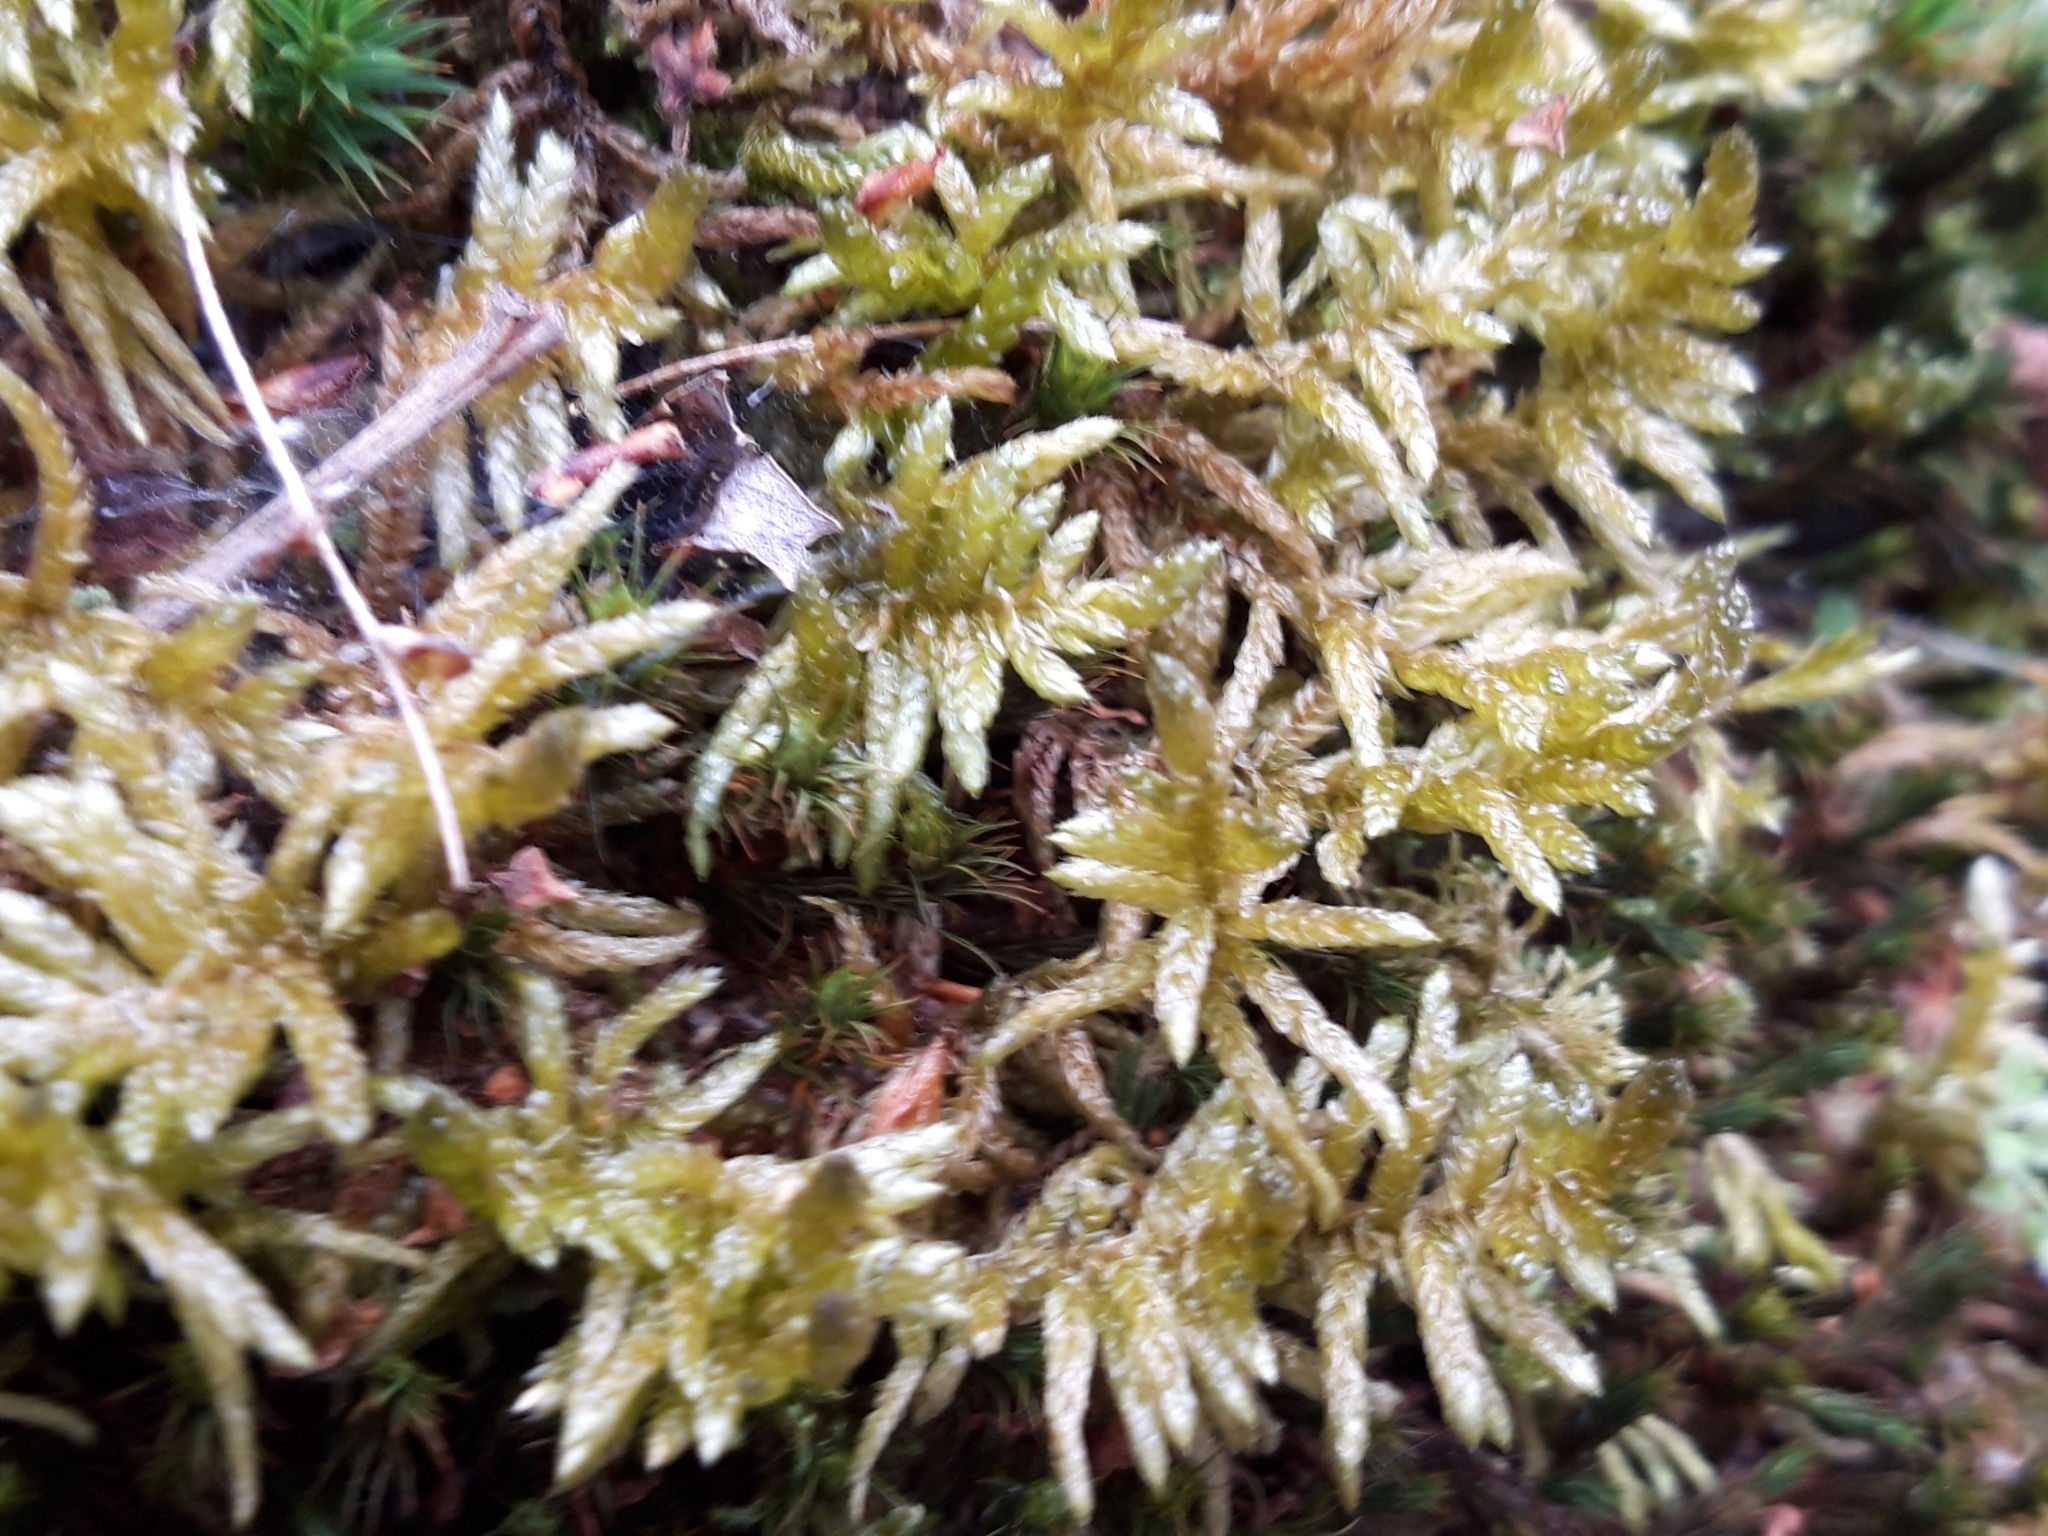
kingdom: Plantae
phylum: Bryophyta
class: Bryopsida
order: Hypnales
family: Brachytheciaceae
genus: Pseudoscleropodium
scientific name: Pseudoscleropodium purum
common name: Neat feather-moss
